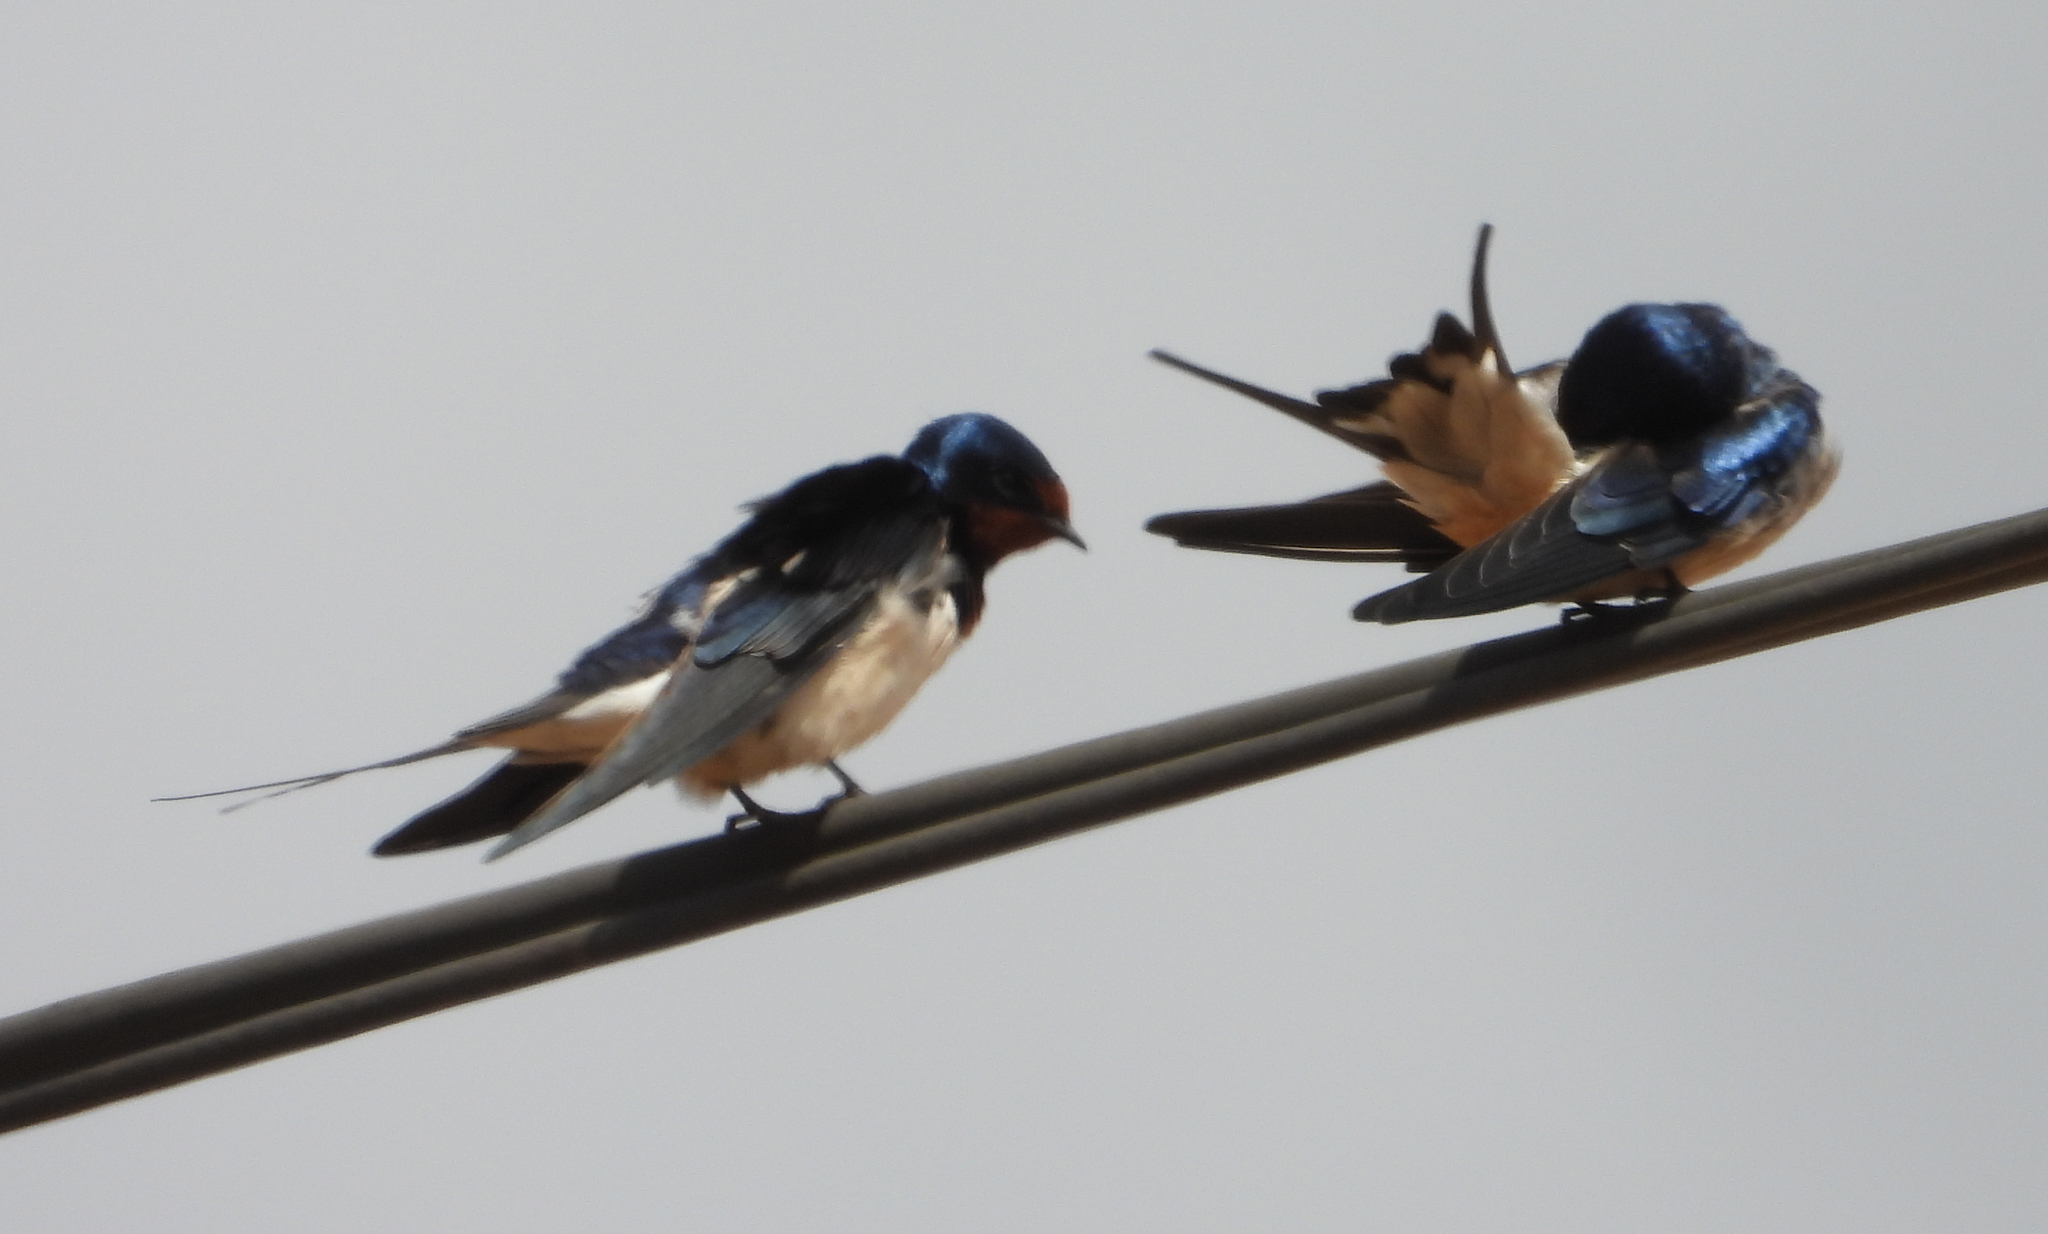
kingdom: Animalia
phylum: Chordata
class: Aves
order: Passeriformes
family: Hirundinidae
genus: Hirundo
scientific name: Hirundo rustica
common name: Barn swallow
